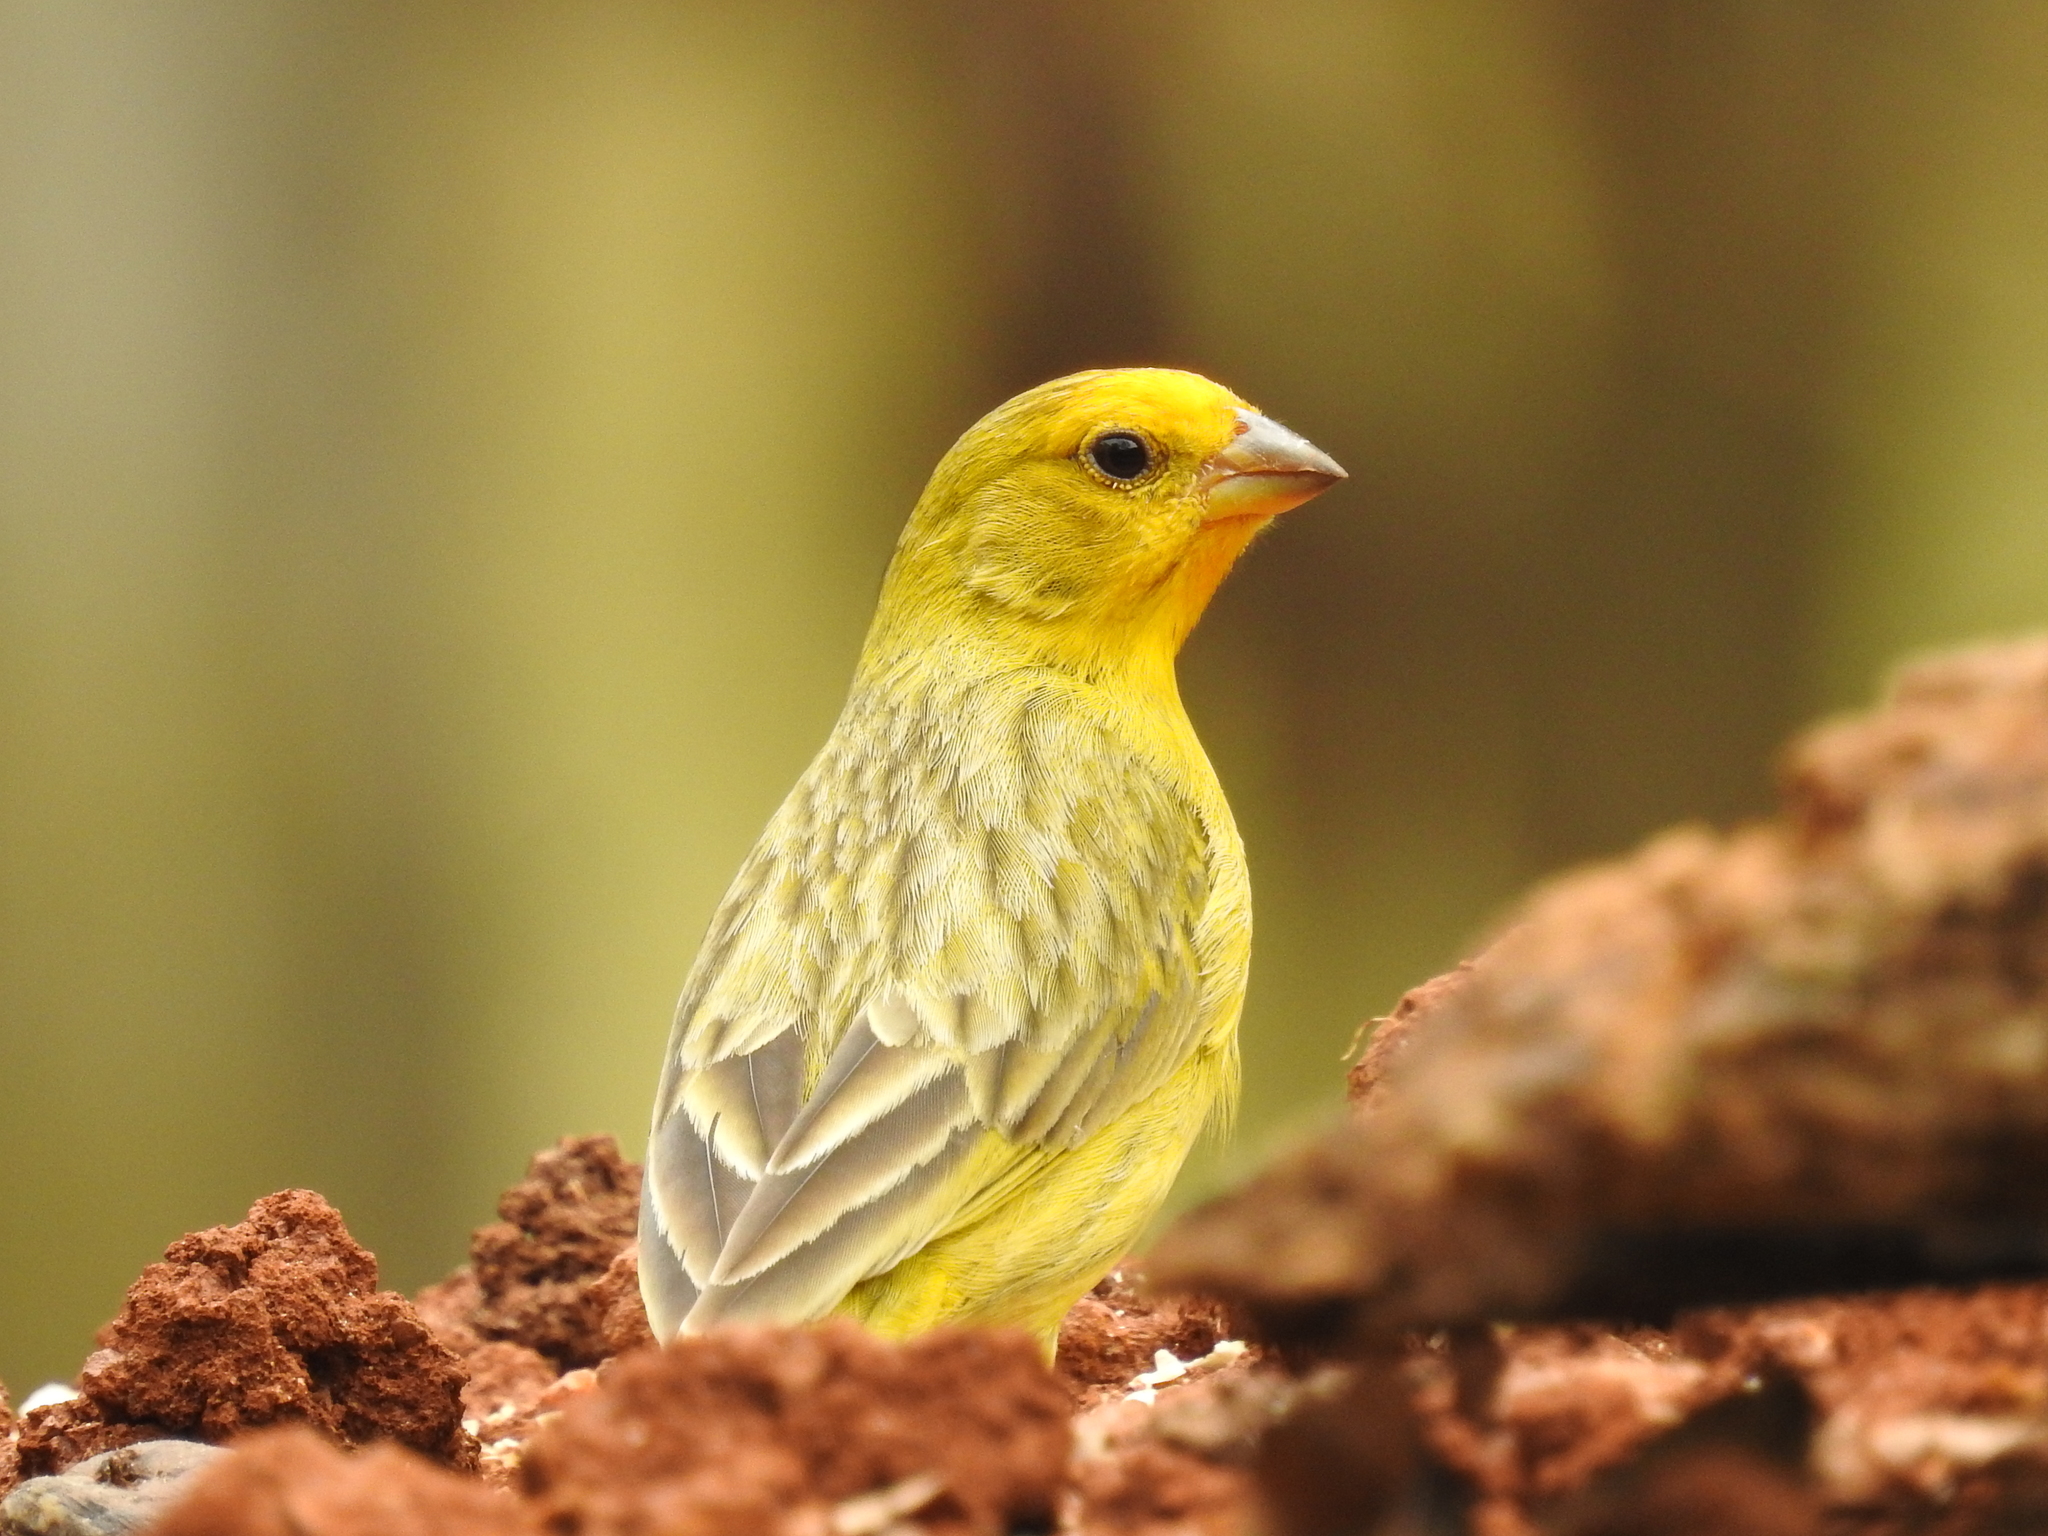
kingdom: Animalia
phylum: Chordata
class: Aves
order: Passeriformes
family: Thraupidae
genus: Sicalis
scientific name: Sicalis flaveola
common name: Saffron finch
